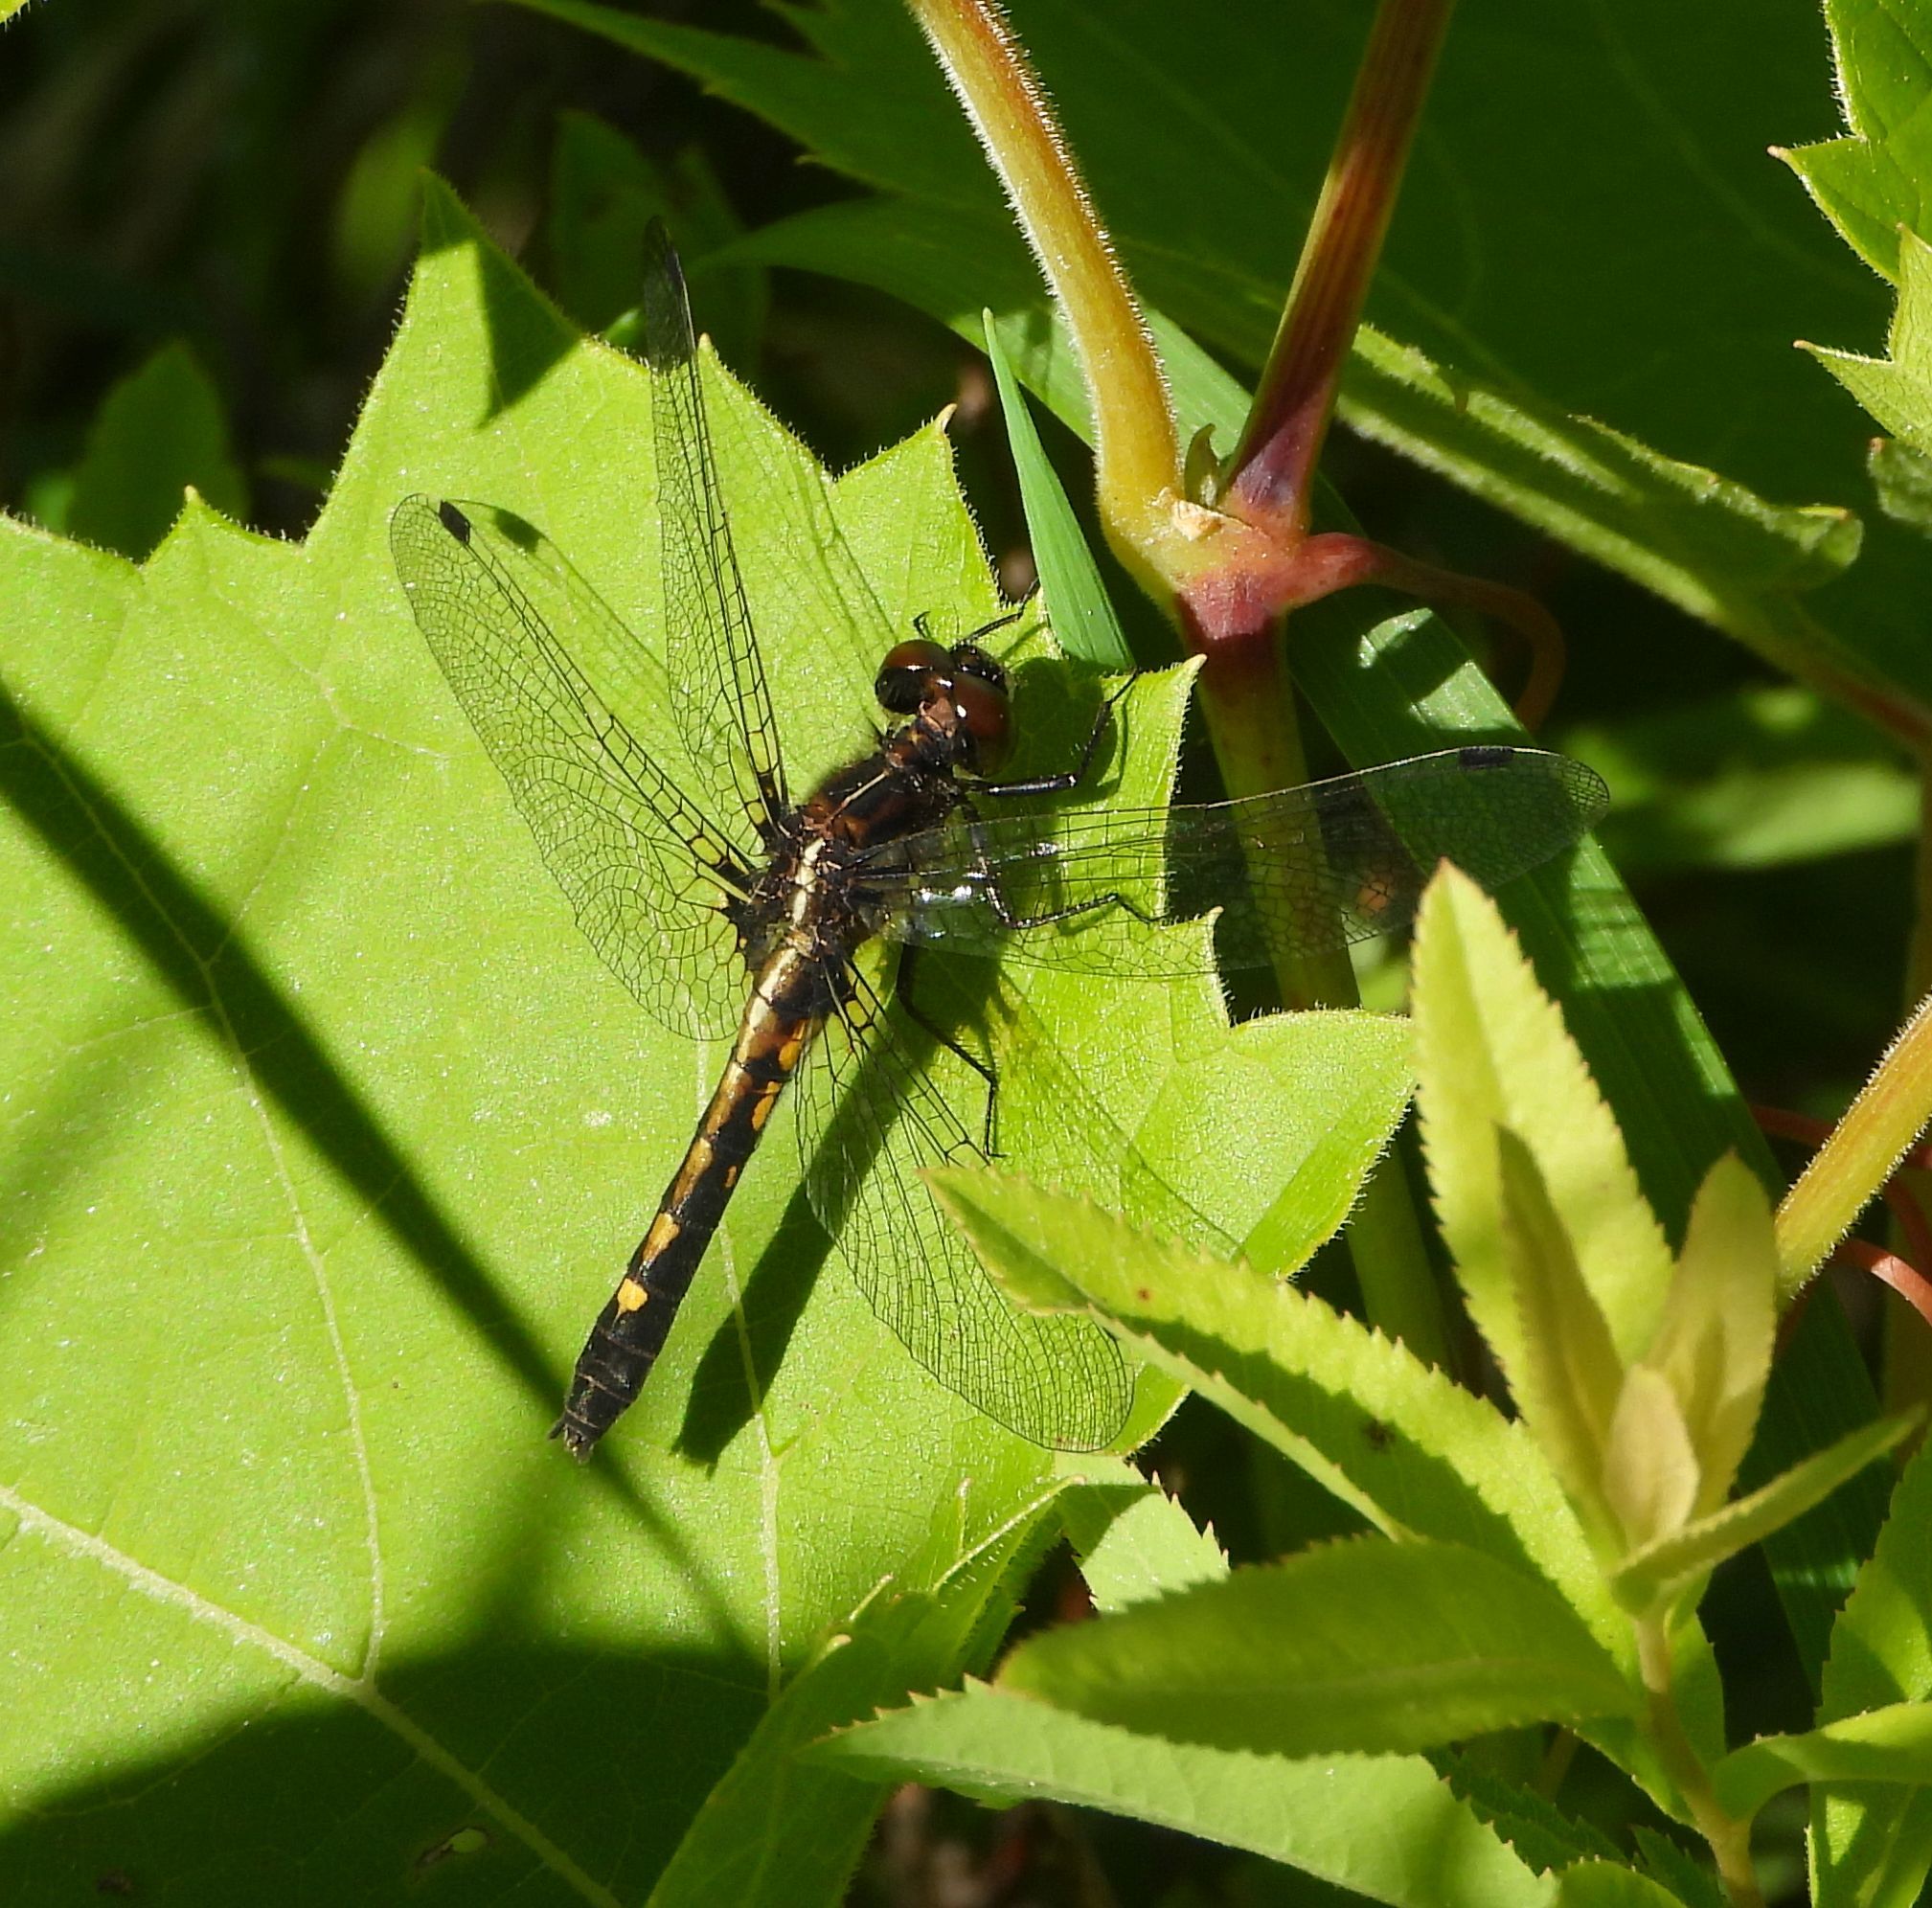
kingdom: Animalia
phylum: Arthropoda
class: Insecta
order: Odonata
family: Libellulidae
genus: Leucorrhinia
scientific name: Leucorrhinia intacta
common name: Dot-tailed whiteface
